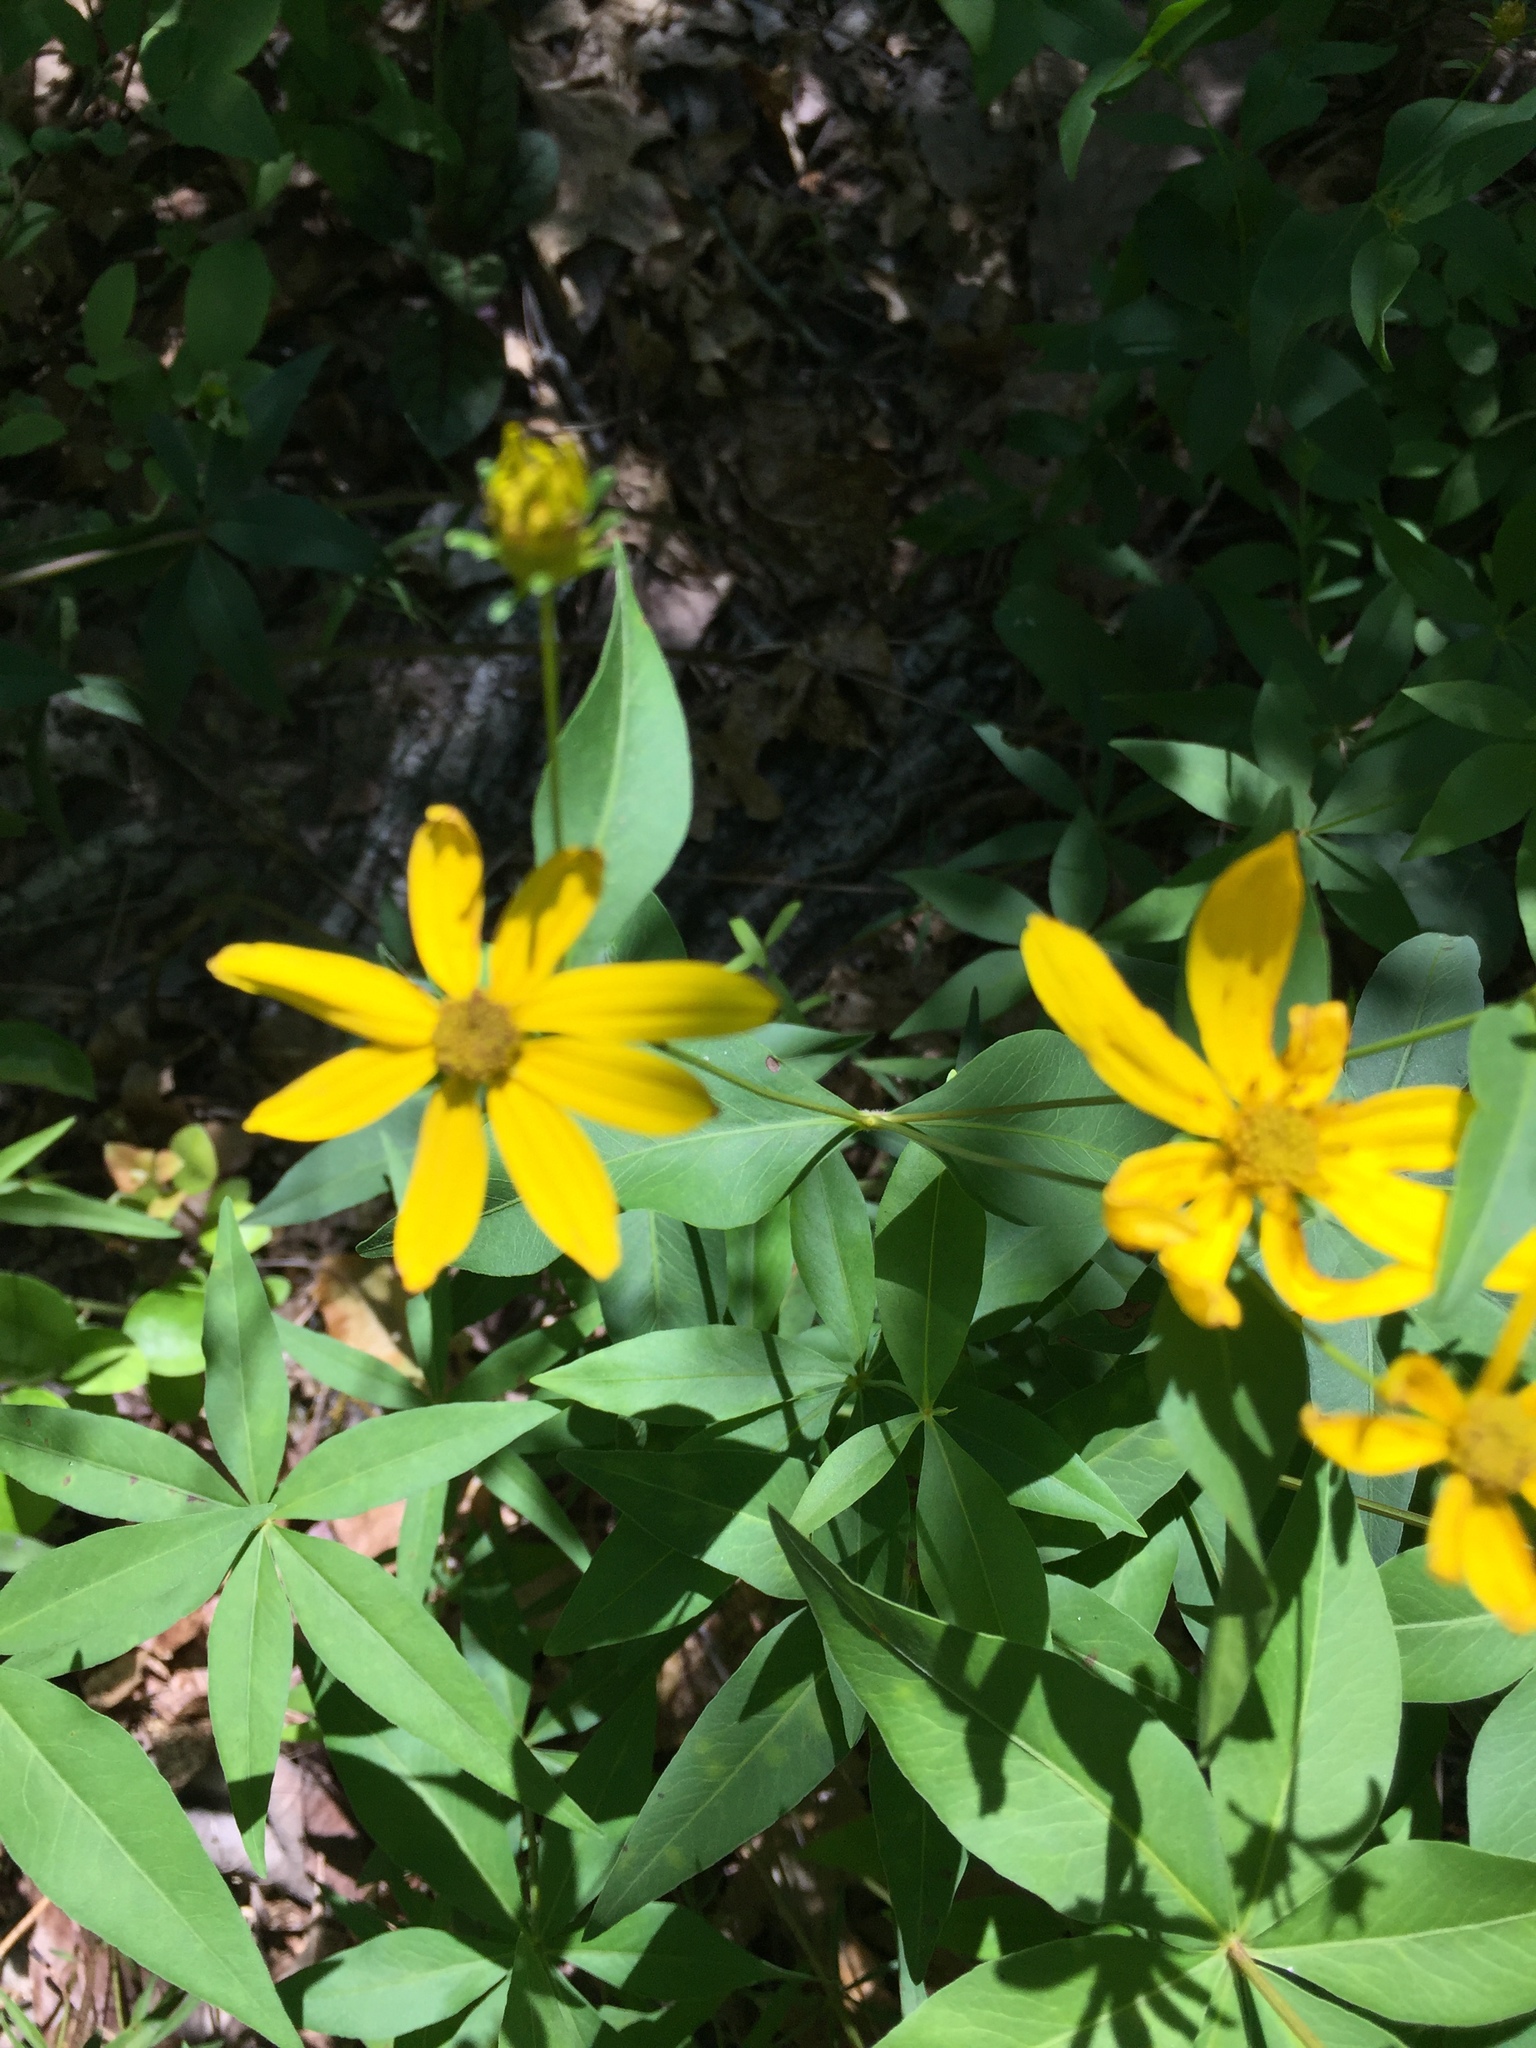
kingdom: Plantae
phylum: Tracheophyta
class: Magnoliopsida
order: Asterales
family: Asteraceae
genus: Coreopsis
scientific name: Coreopsis major
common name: Forest tickseed
